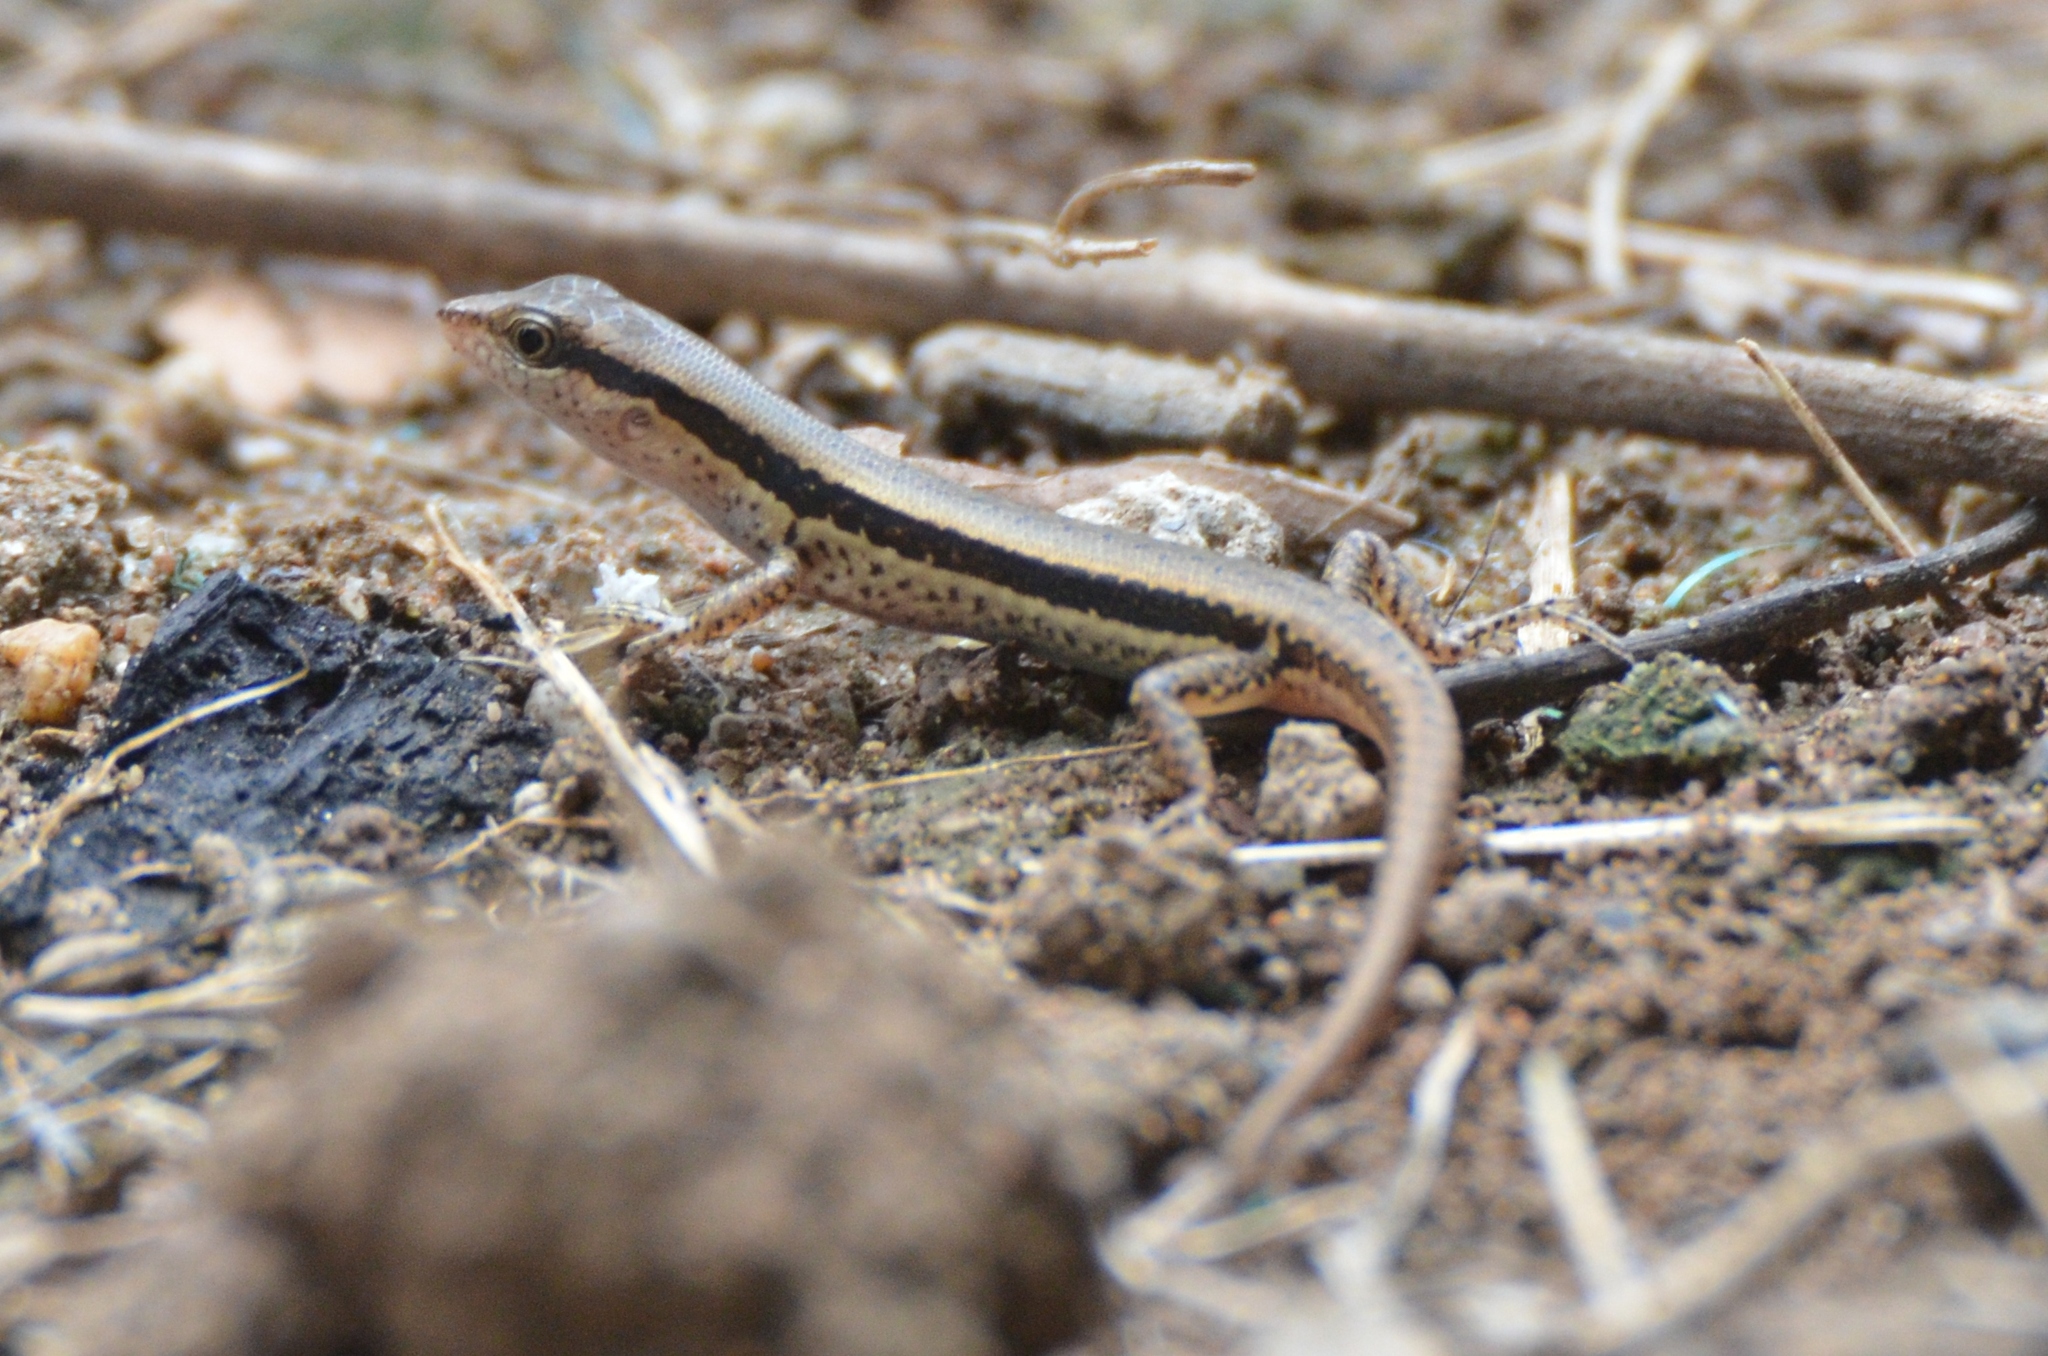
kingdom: Animalia
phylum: Chordata
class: Squamata
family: Scincidae
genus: Sphenomorphus
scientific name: Sphenomorphus maculatus
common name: Maculated forest skink
